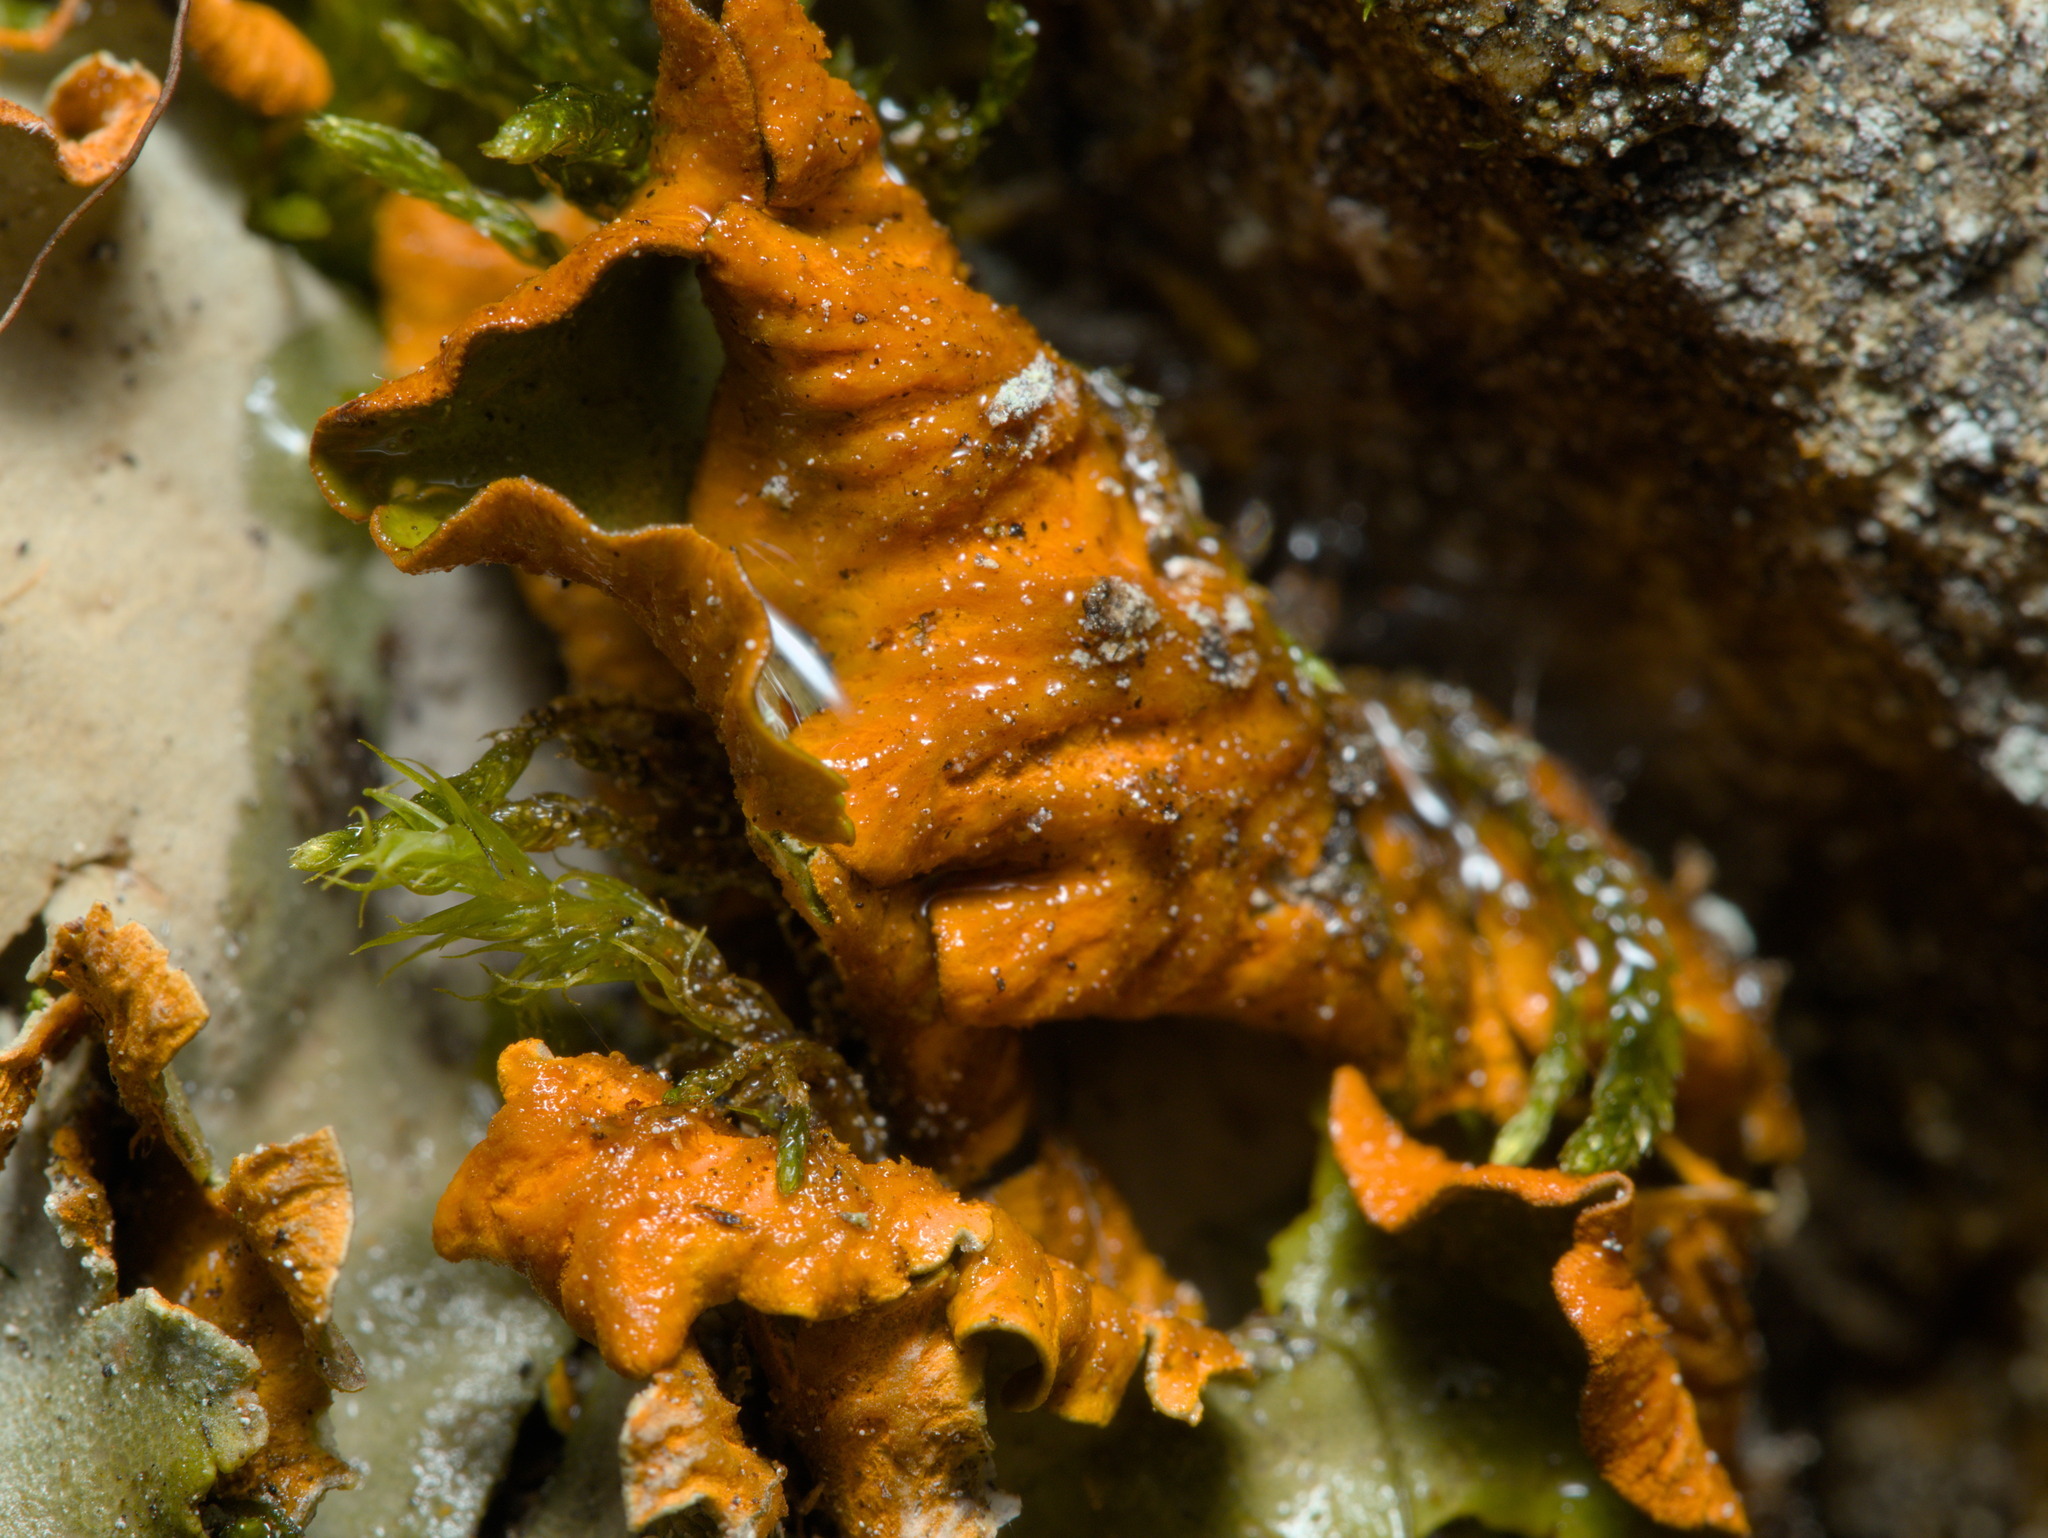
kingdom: Fungi
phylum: Ascomycota
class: Lecanoromycetes
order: Peltigerales
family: Peltigeraceae
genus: Solorina
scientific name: Solorina crocea
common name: Mountain saffron
